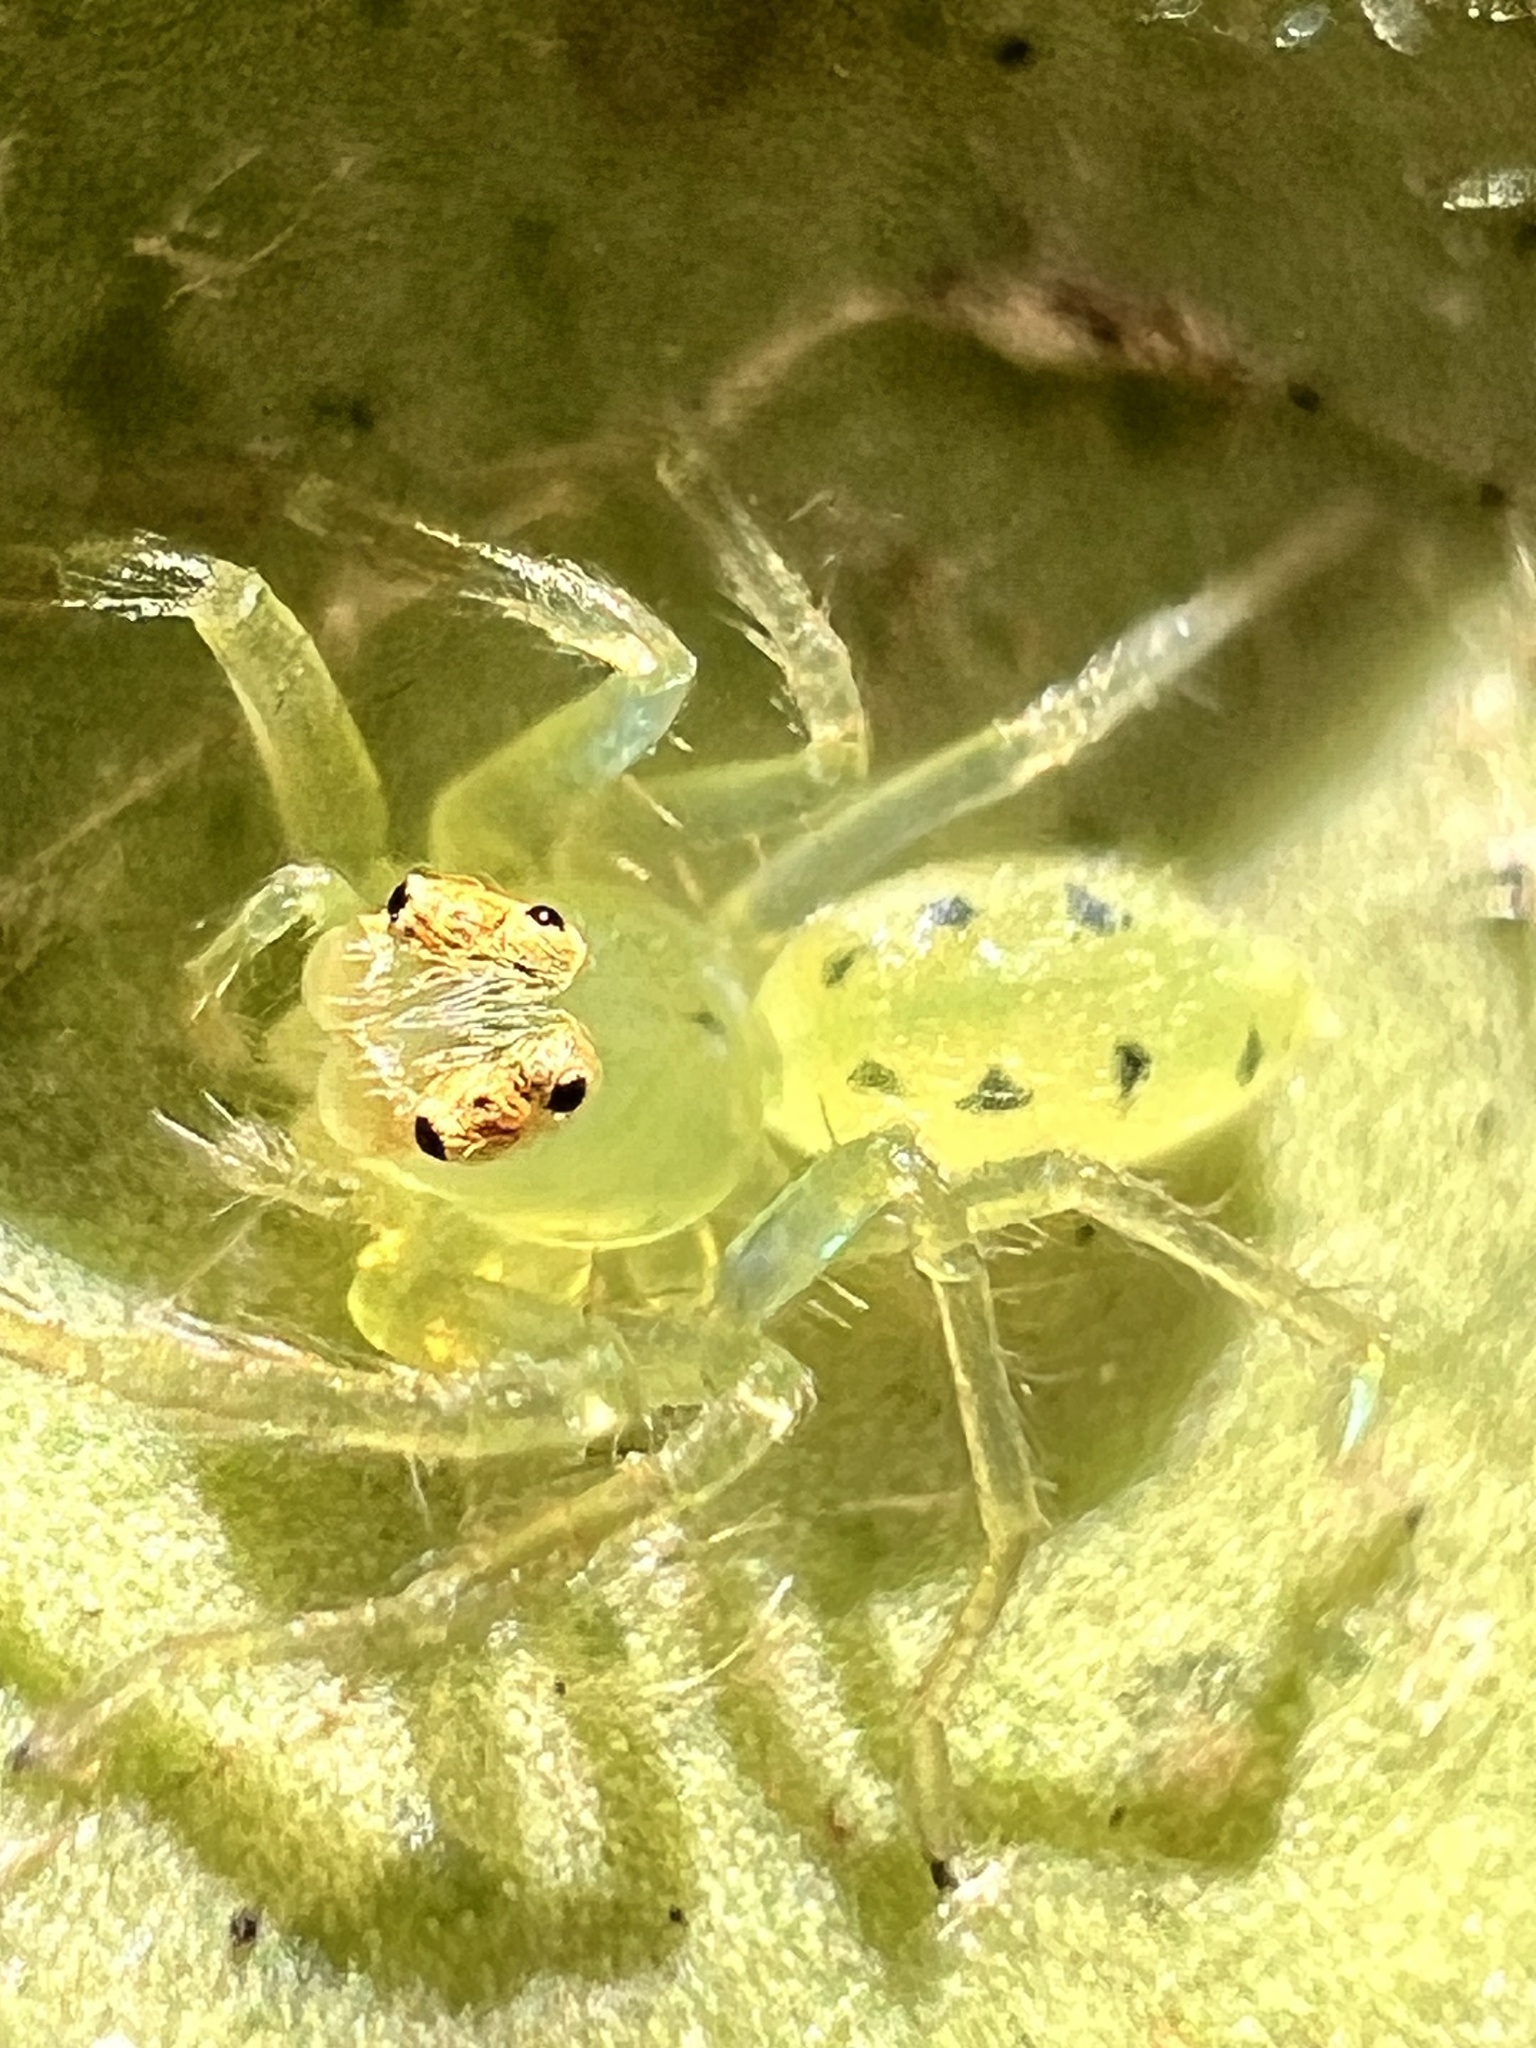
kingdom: Animalia
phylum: Arthropoda
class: Arachnida
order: Araneae
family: Salticidae
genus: Lyssomanes
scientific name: Lyssomanes viridis
